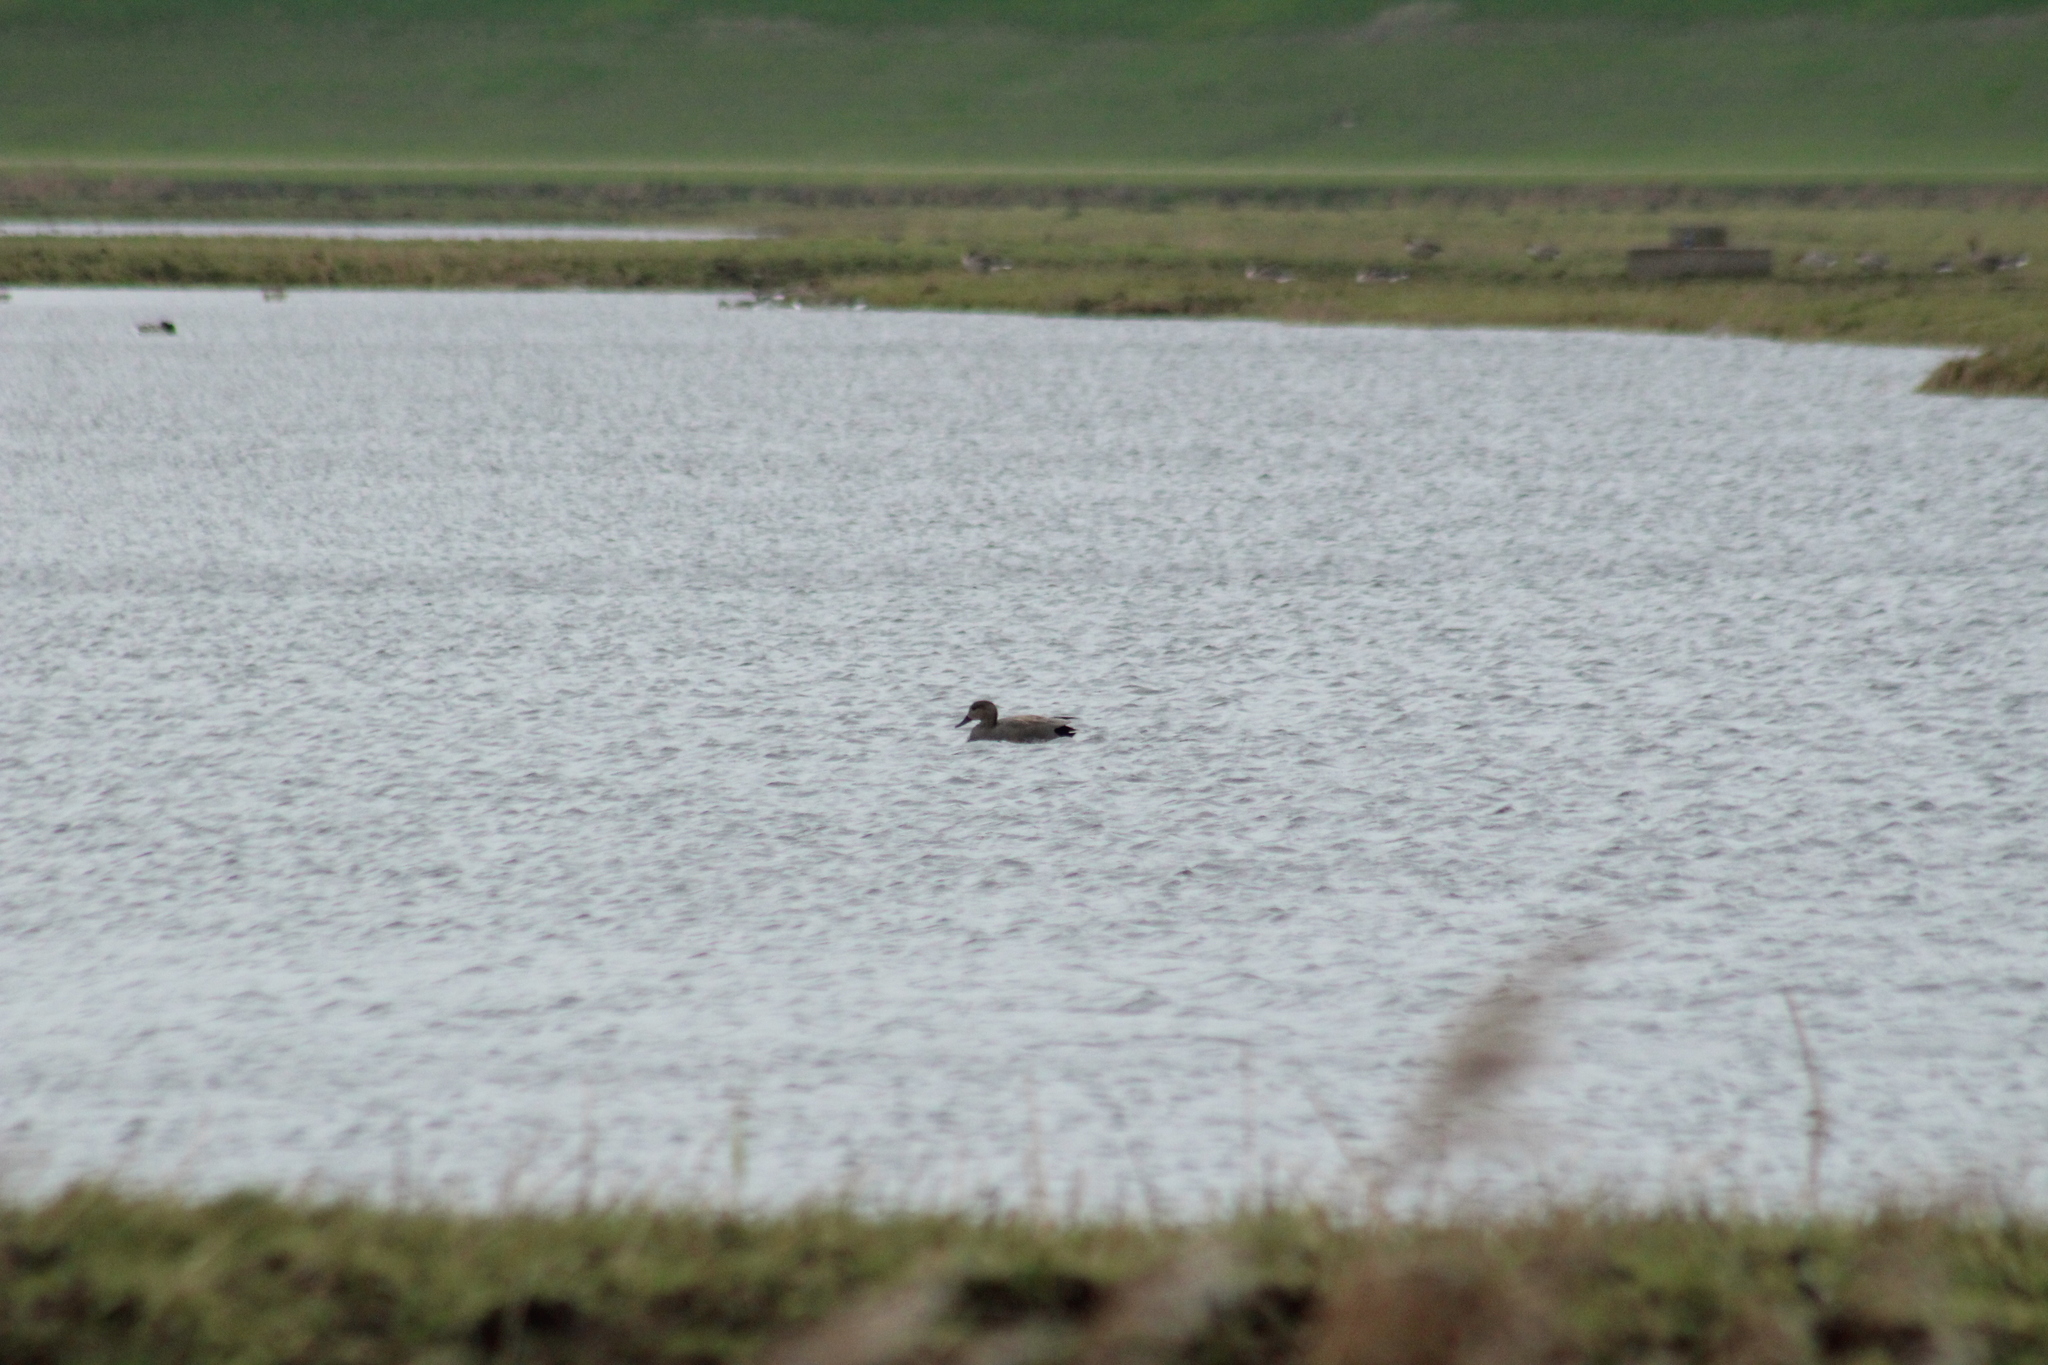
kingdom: Animalia
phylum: Chordata
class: Aves
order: Anseriformes
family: Anatidae
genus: Mareca
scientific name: Mareca strepera
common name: Gadwall
